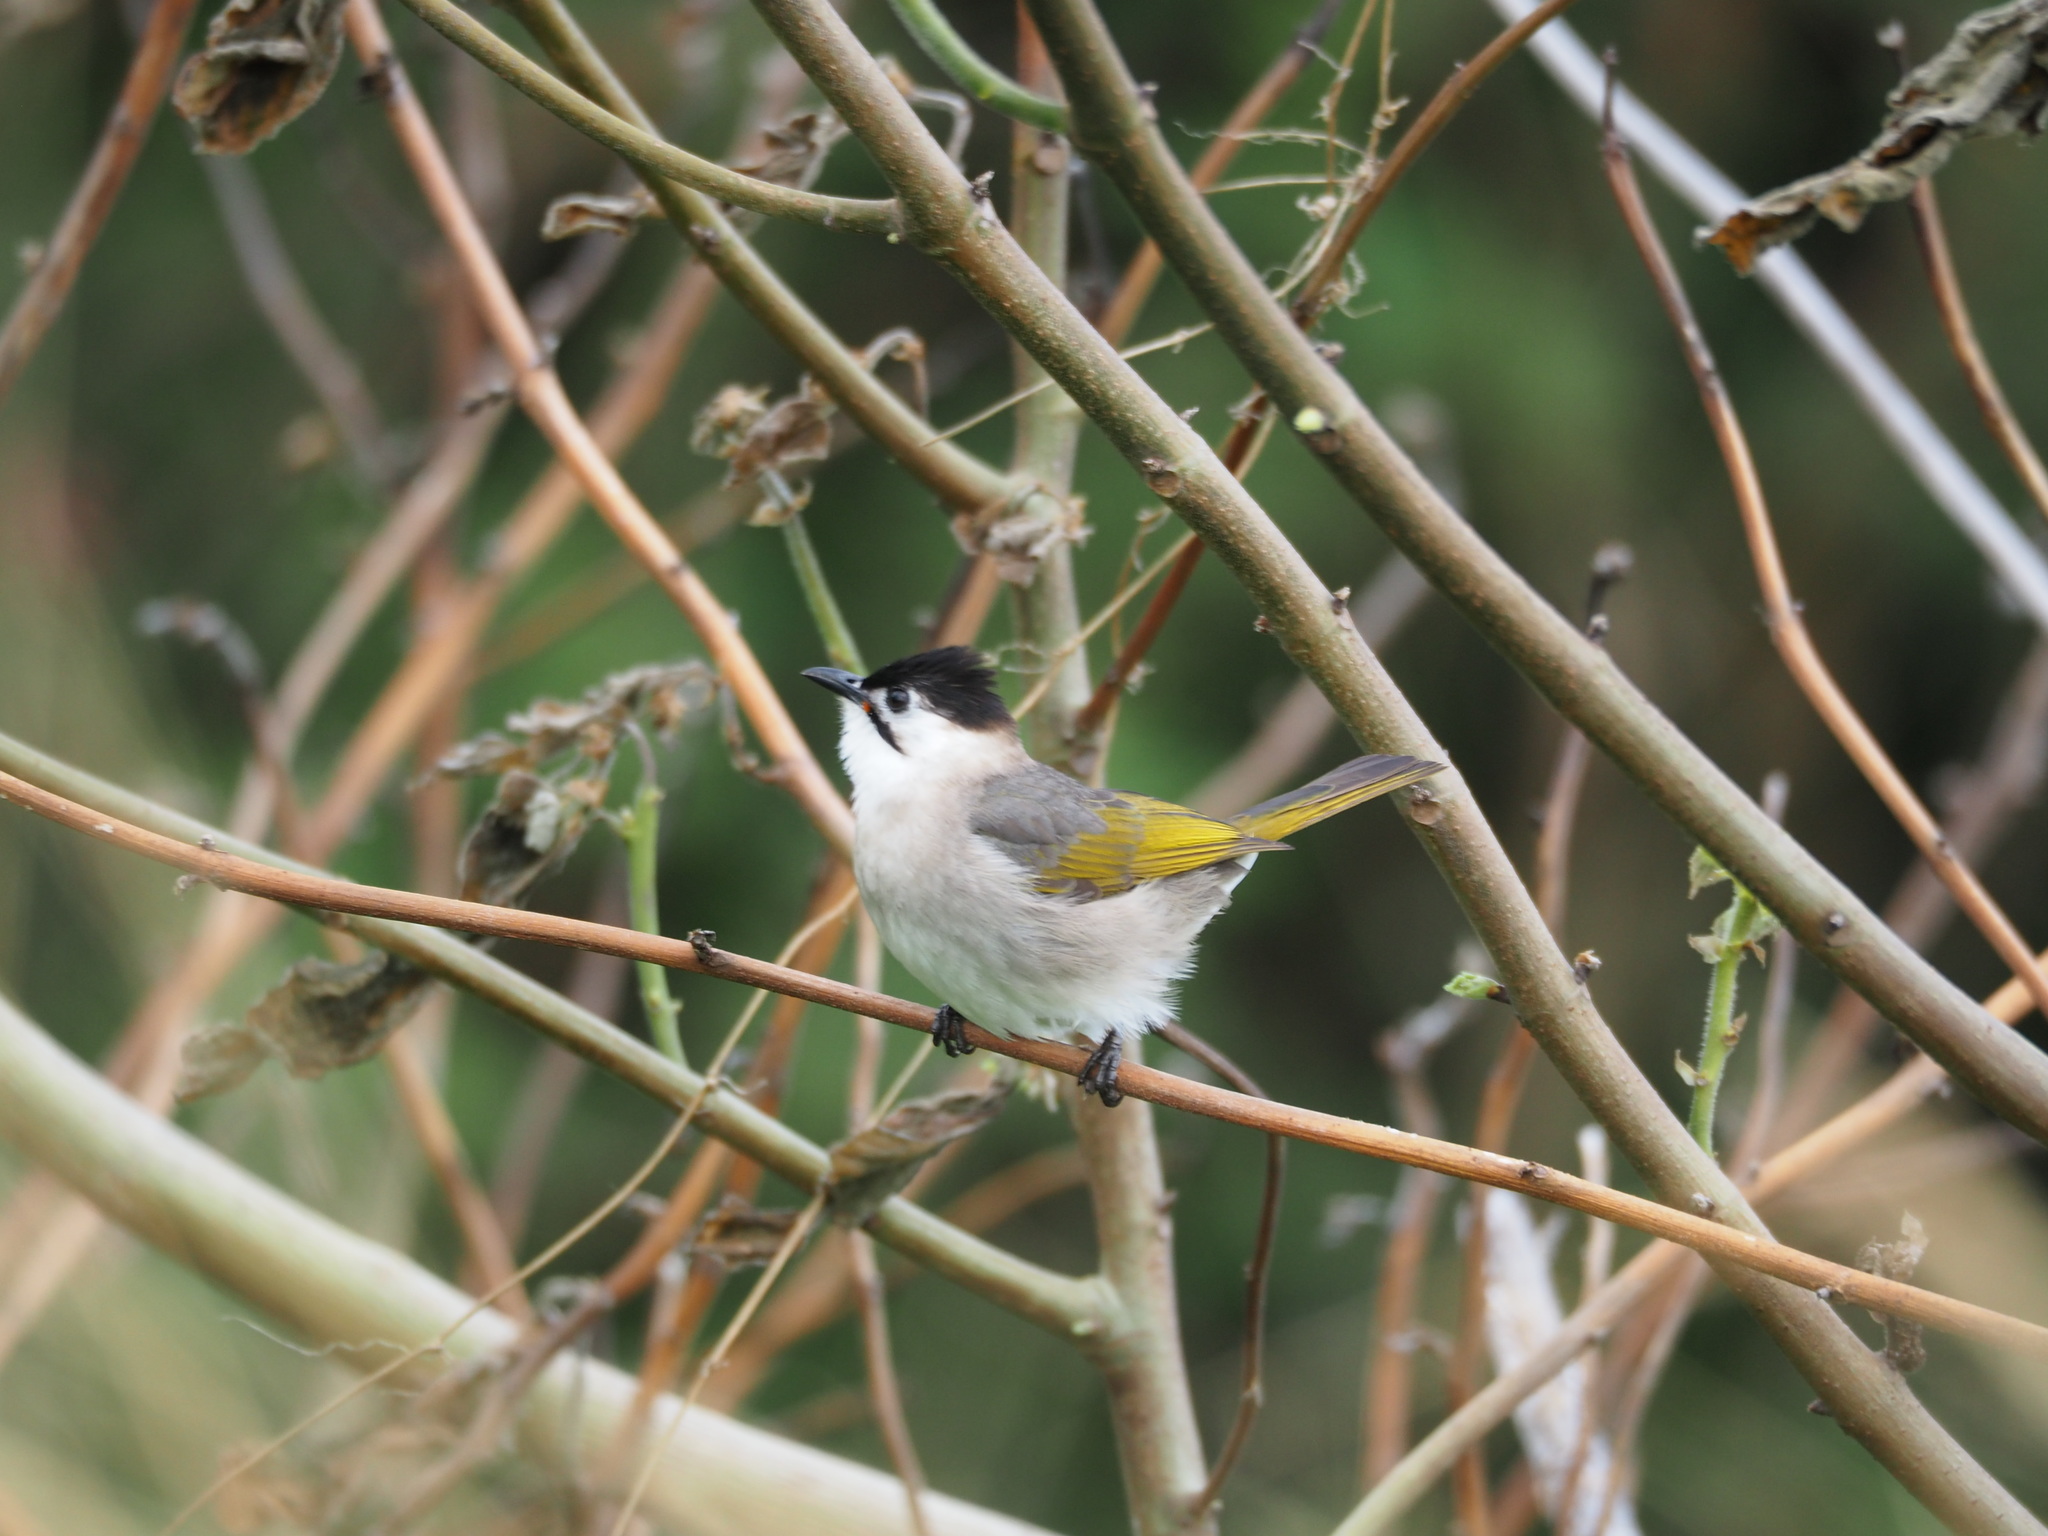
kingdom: Animalia
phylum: Chordata
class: Aves
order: Passeriformes
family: Pycnonotidae
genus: Pycnonotus
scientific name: Pycnonotus taivanus
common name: Styan's bulbul
